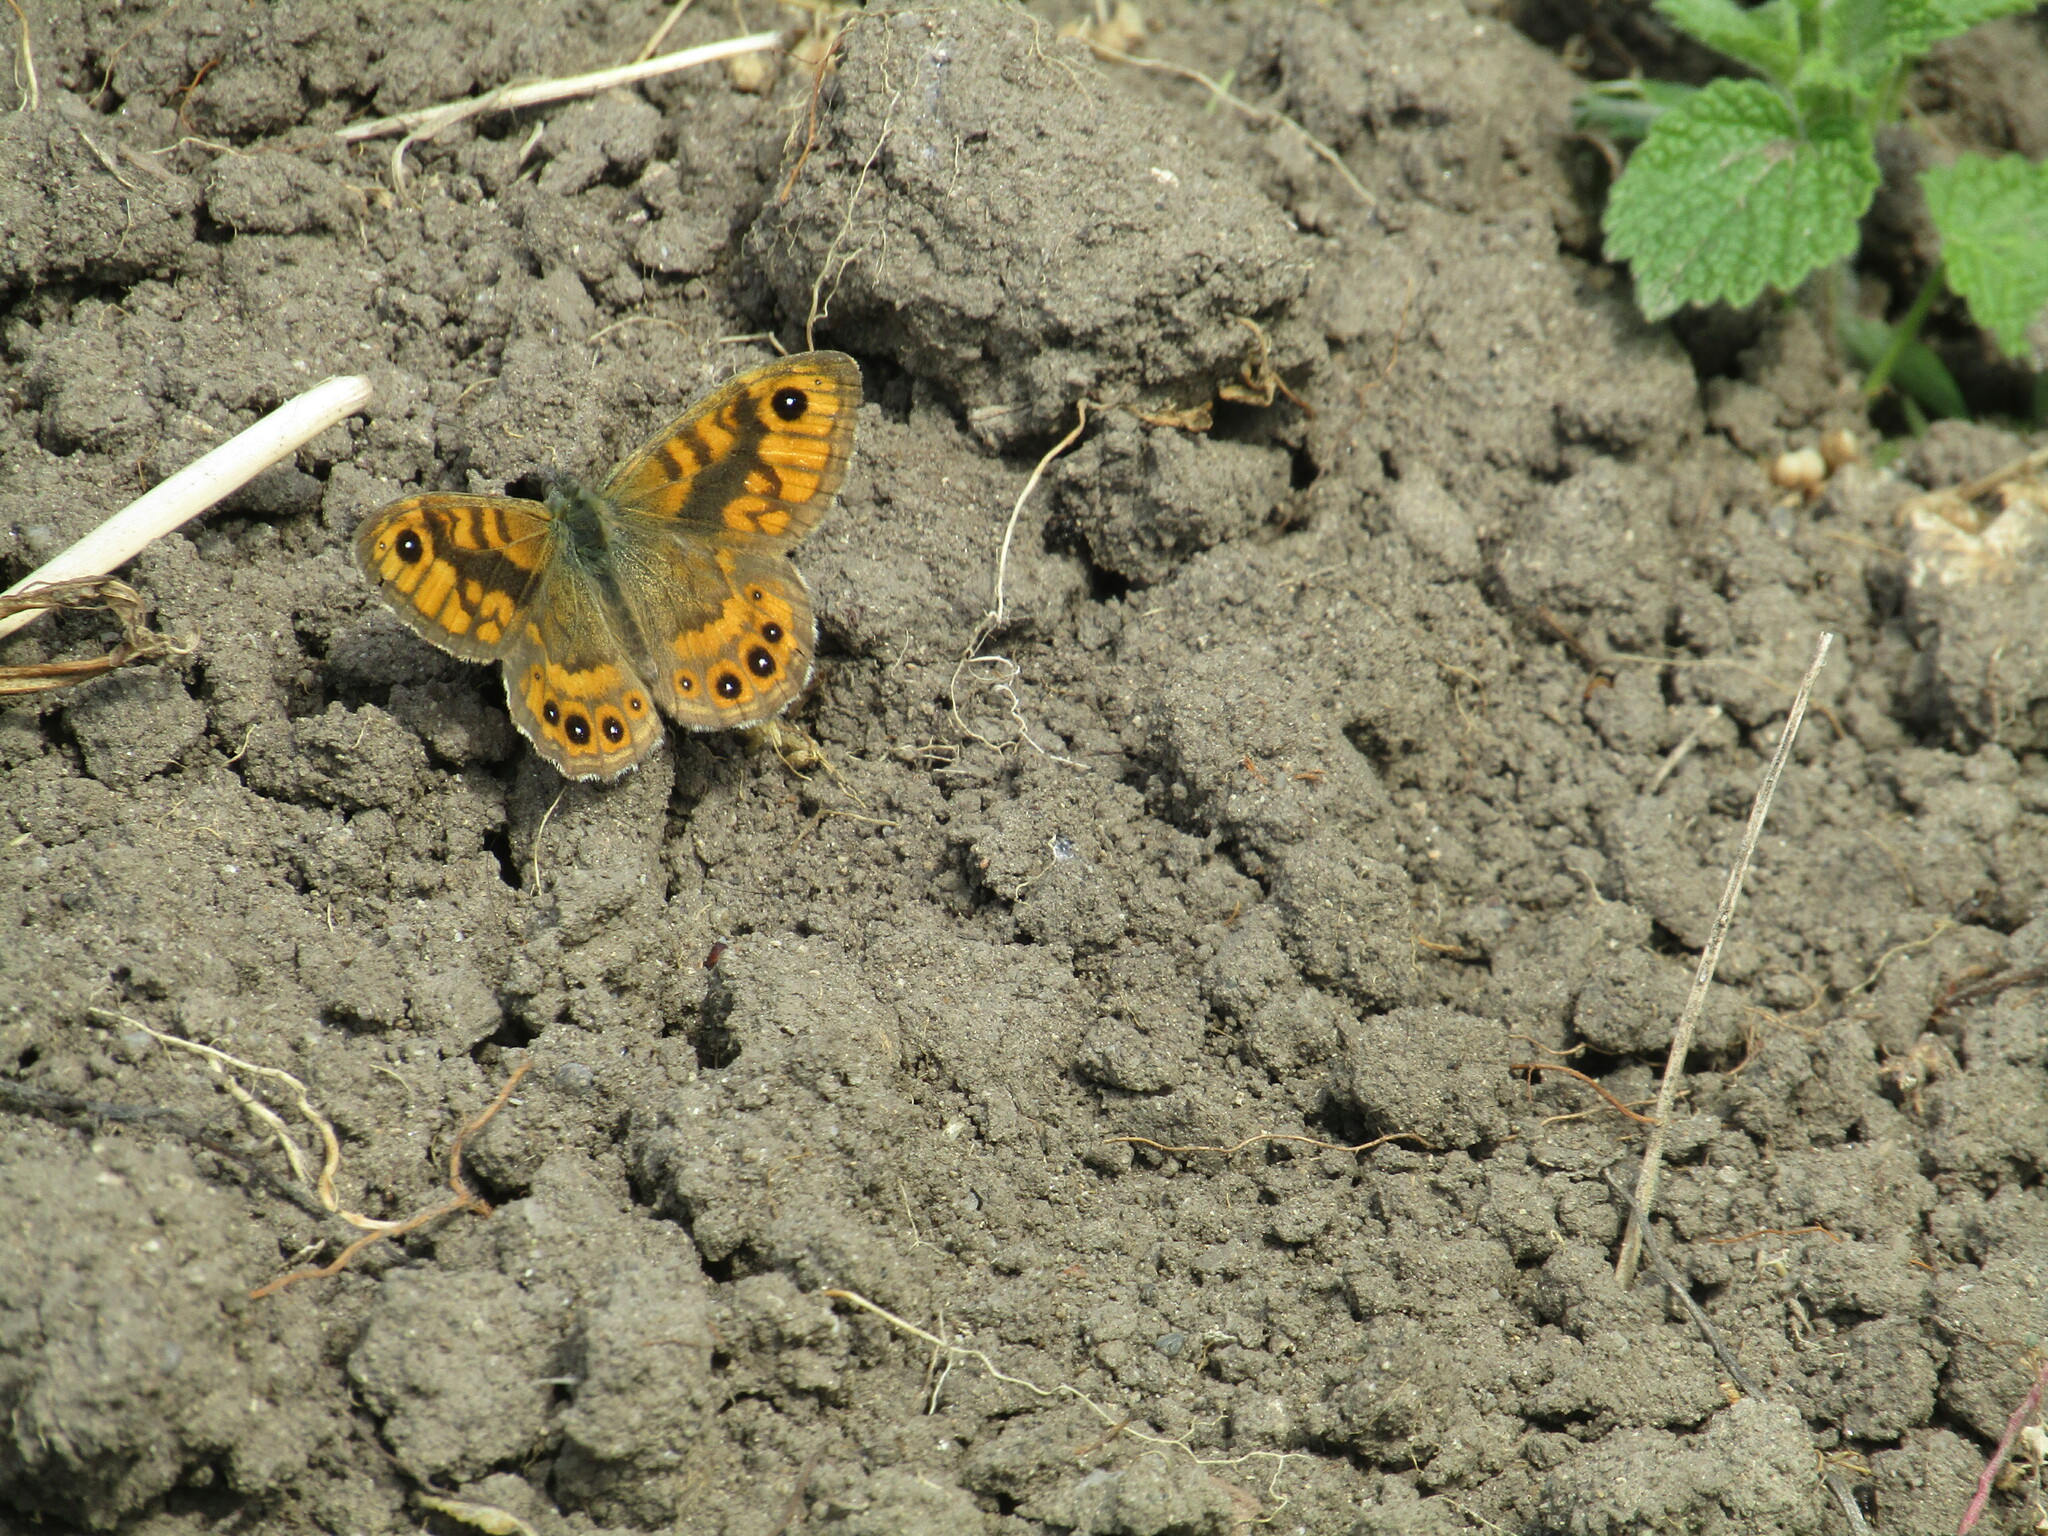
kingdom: Animalia
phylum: Arthropoda
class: Insecta
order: Lepidoptera
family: Nymphalidae
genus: Pararge
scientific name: Pararge Lasiommata megera
